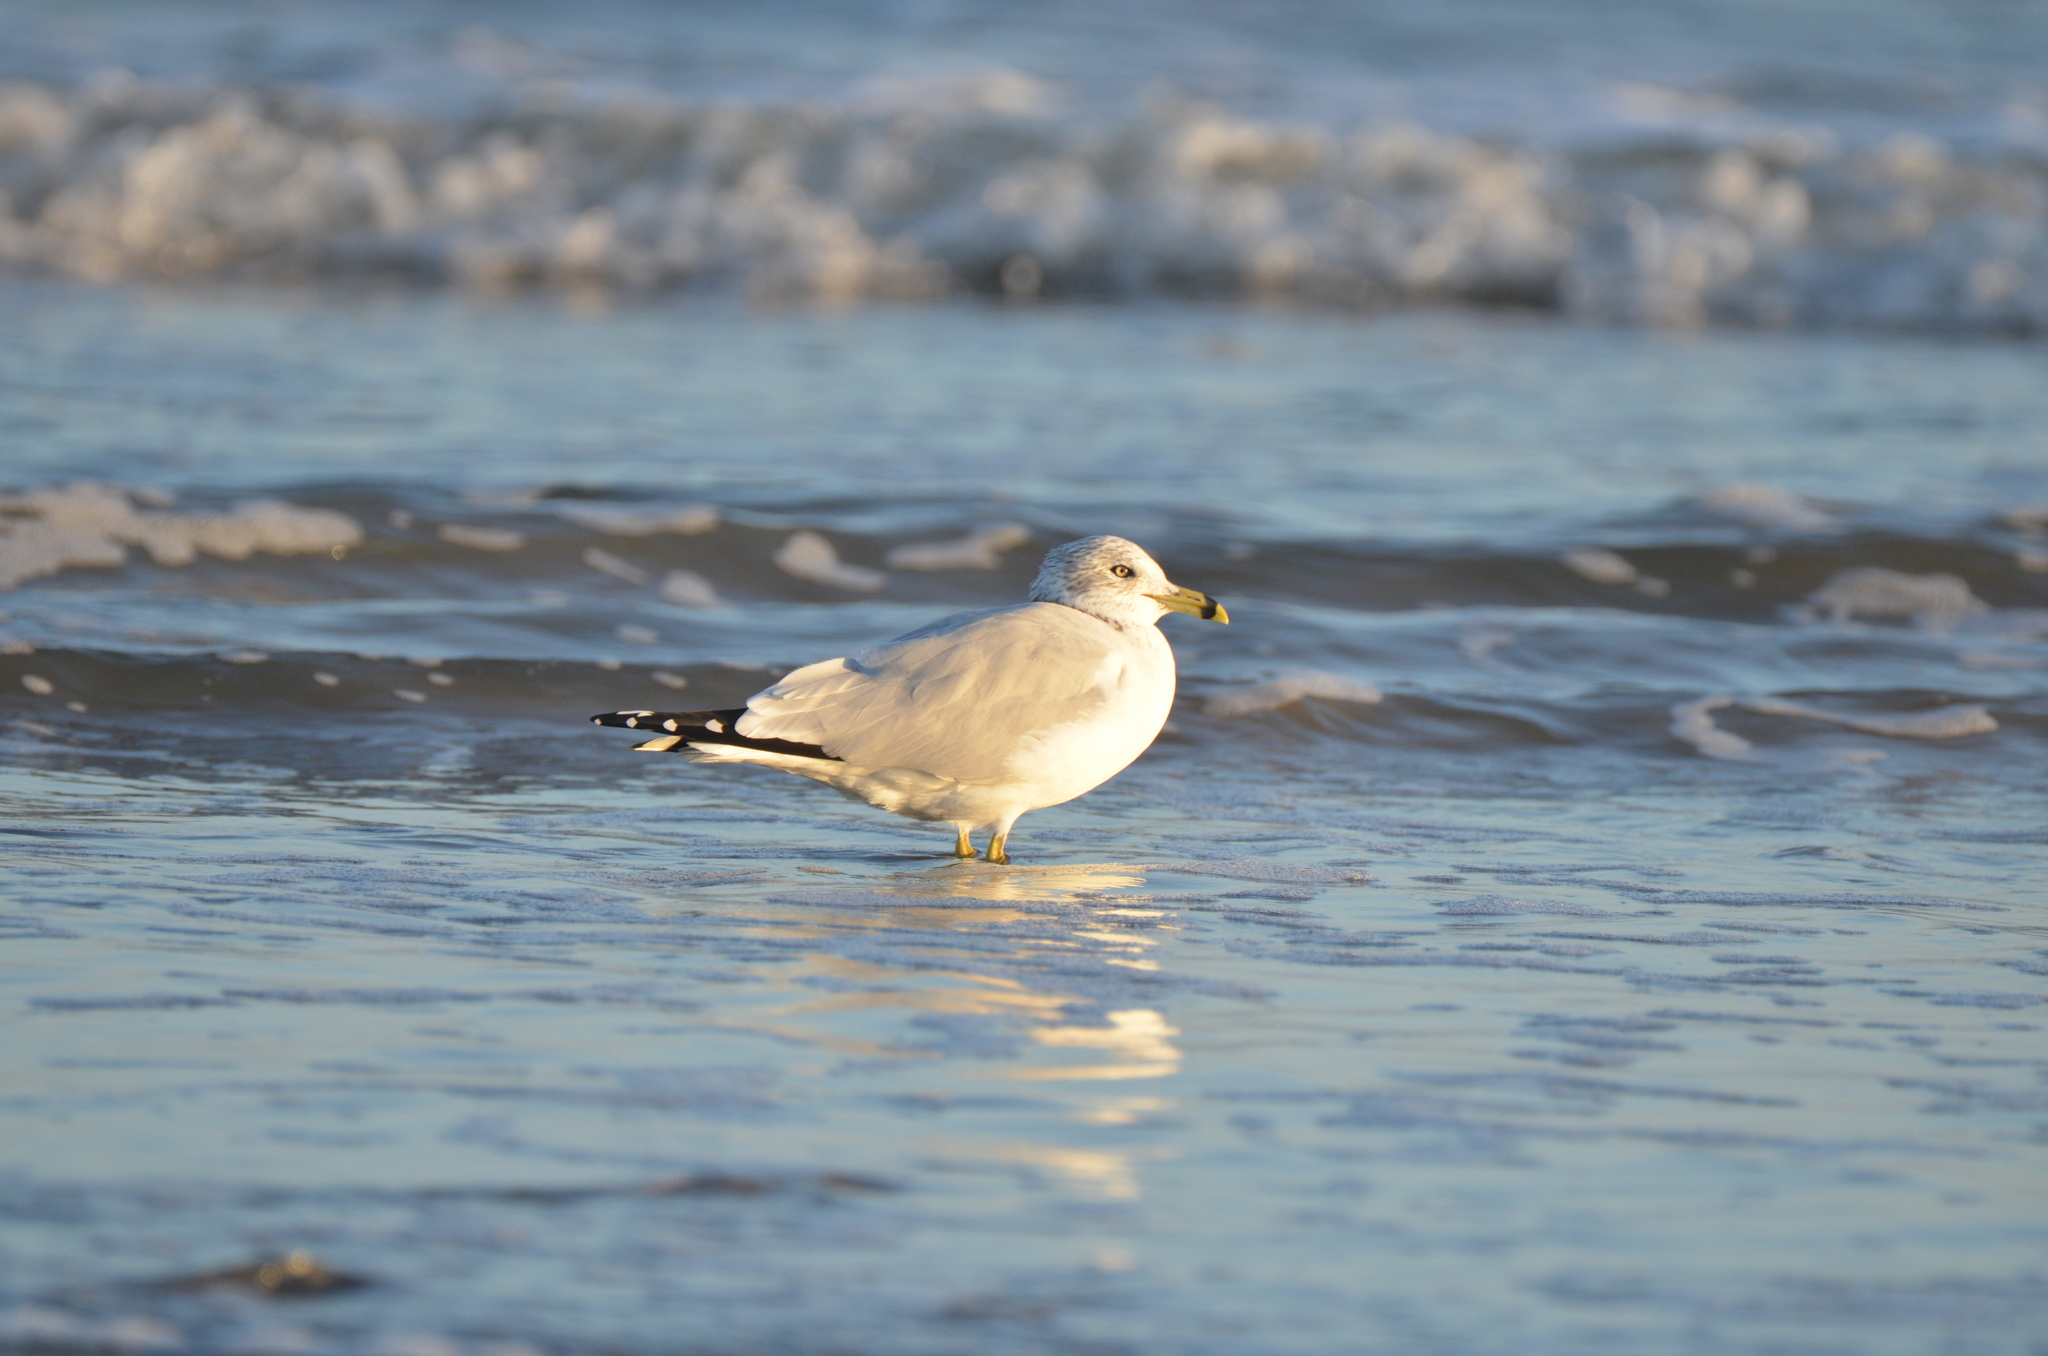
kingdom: Animalia
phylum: Chordata
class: Aves
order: Charadriiformes
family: Laridae
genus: Larus
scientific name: Larus delawarensis
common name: Ring-billed gull
